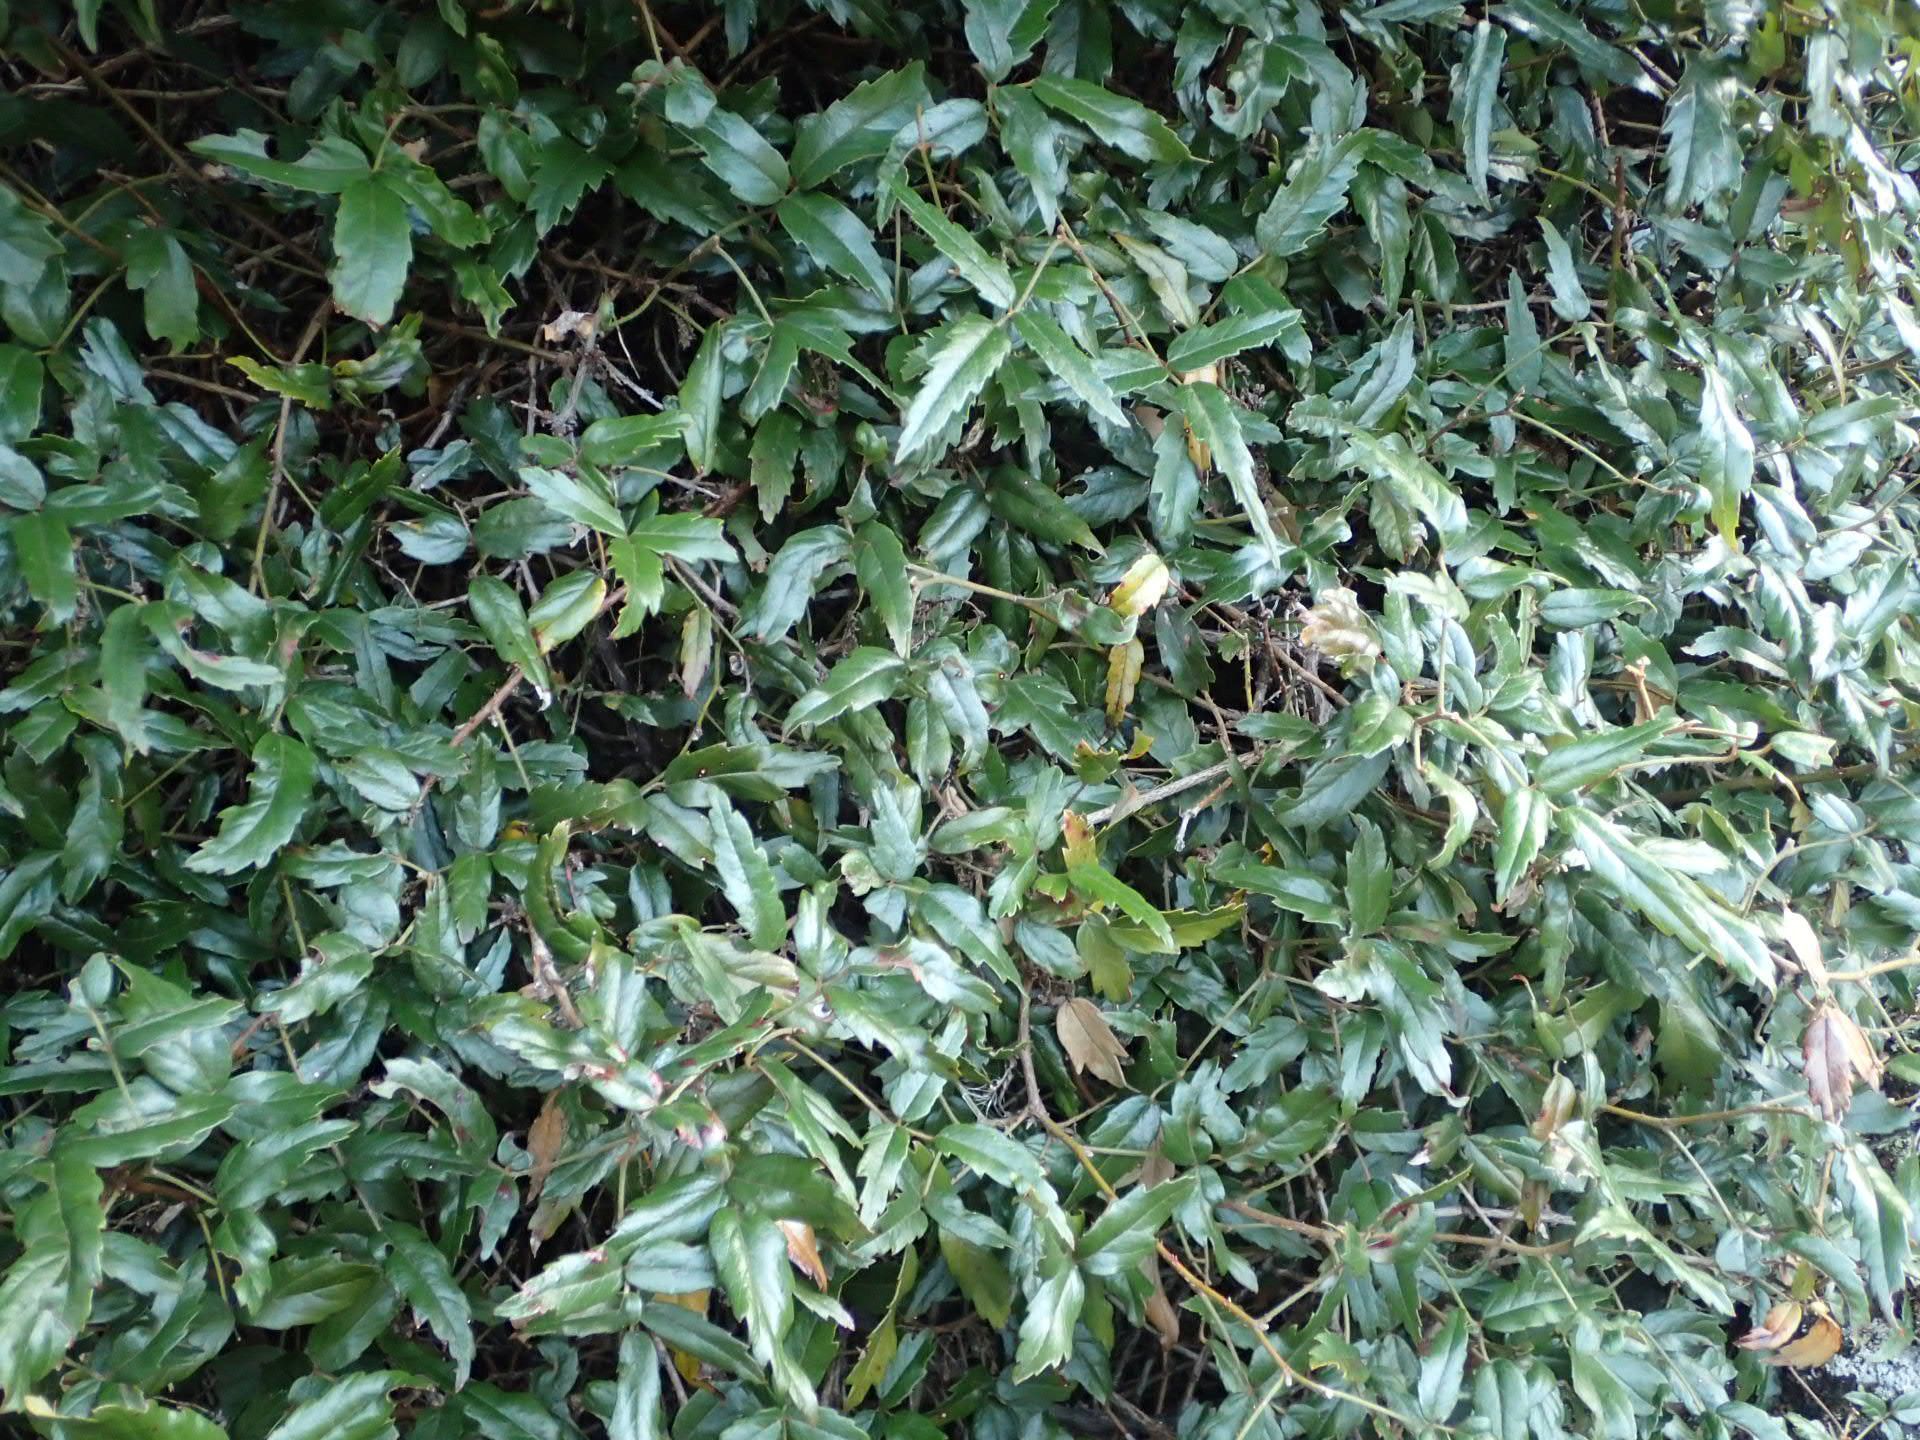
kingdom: Plantae
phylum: Tracheophyta
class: Magnoliopsida
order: Rosales
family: Rosaceae
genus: Rubus
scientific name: Rubus schmidelioides
